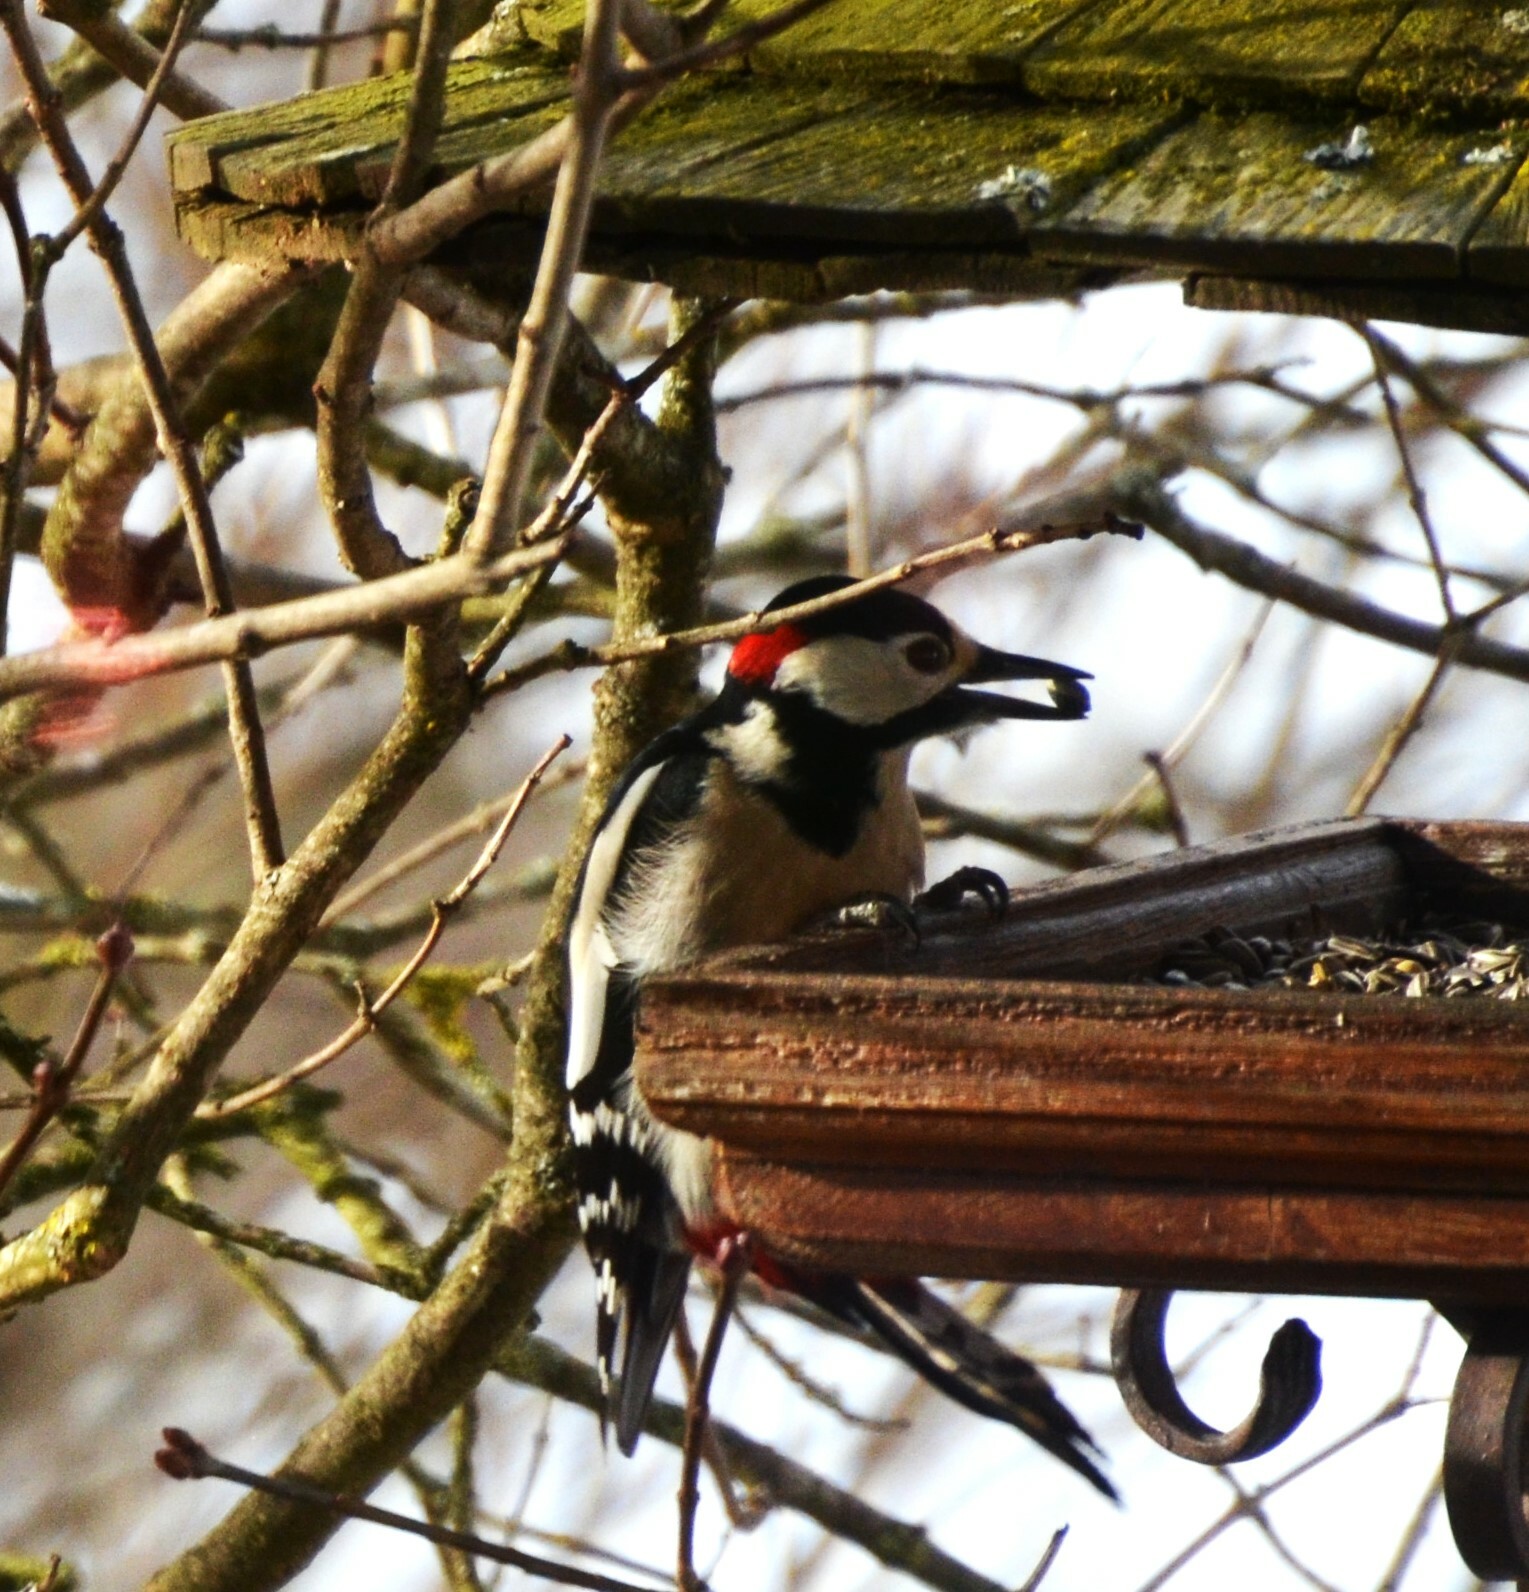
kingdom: Animalia
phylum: Chordata
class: Aves
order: Piciformes
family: Picidae
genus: Dendrocopos
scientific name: Dendrocopos major
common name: Great spotted woodpecker
